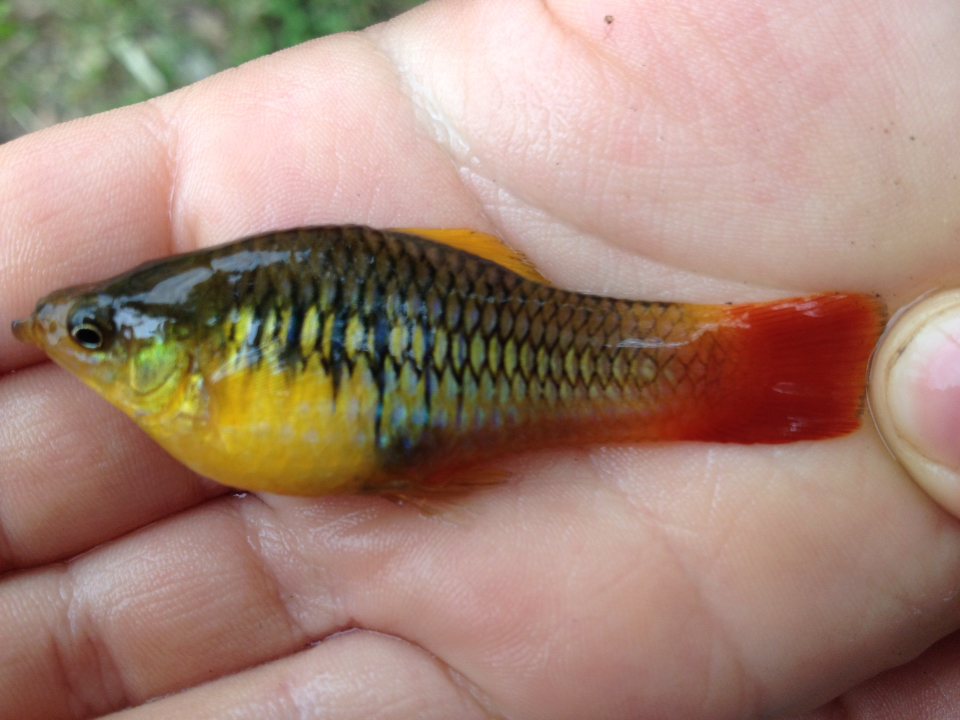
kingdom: Animalia
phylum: Chordata
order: Cyprinodontiformes
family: Poeciliidae
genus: Xiphophorus
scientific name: Xiphophorus variatus
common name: Variable platyfish
